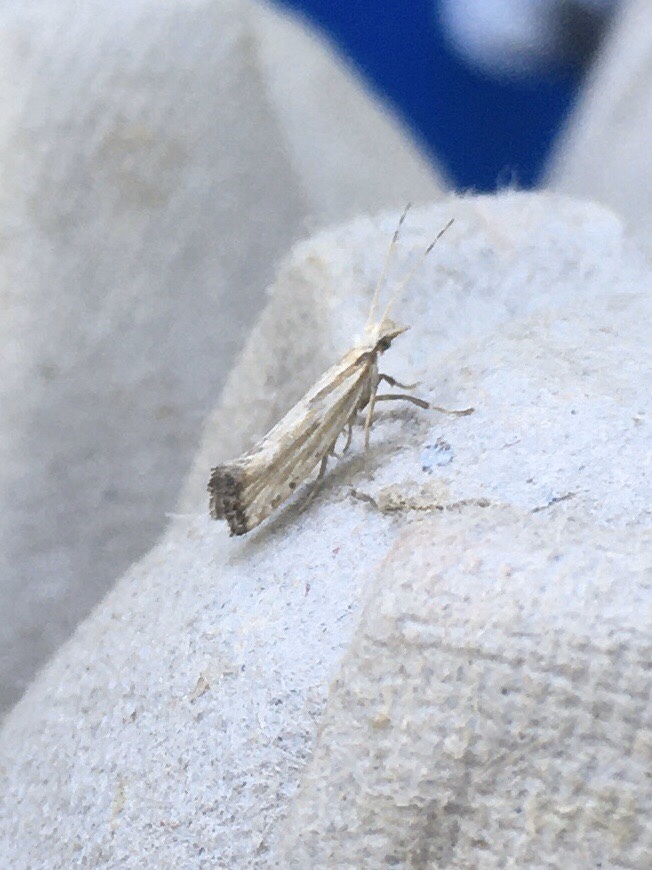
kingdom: Animalia
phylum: Arthropoda
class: Insecta
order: Lepidoptera
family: Plutellidae
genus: Plutella
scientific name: Plutella porrectella
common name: Dame's rocket moth
